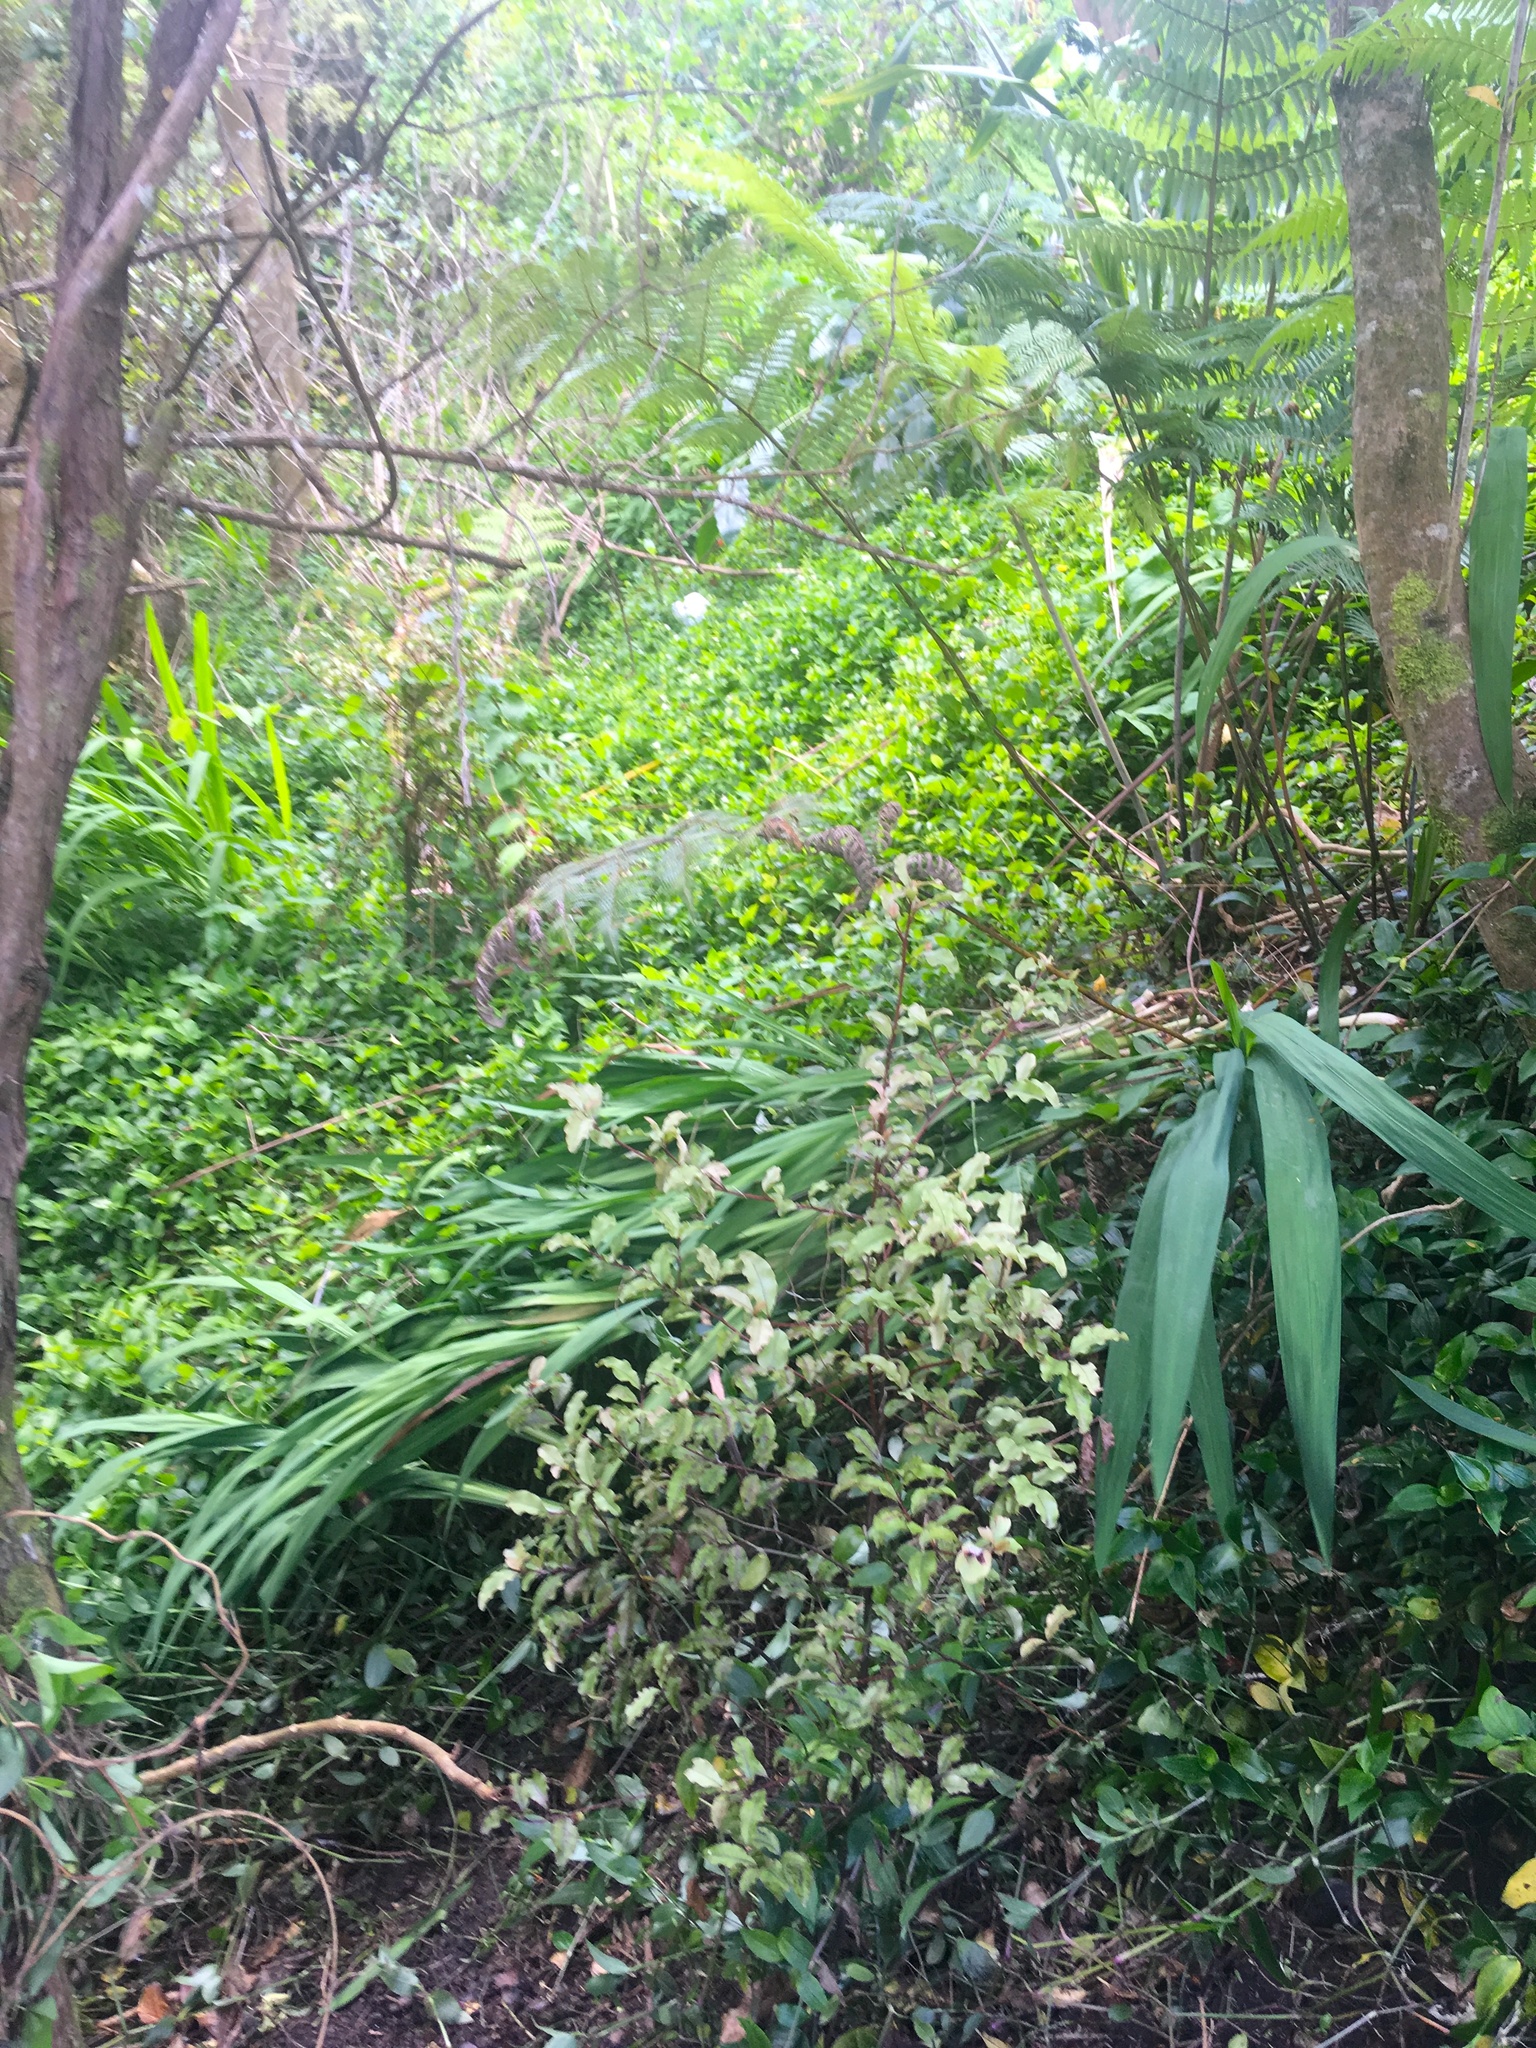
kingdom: Plantae
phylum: Tracheophyta
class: Magnoliopsida
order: Ericales
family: Primulaceae
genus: Myrsine
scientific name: Myrsine australis
